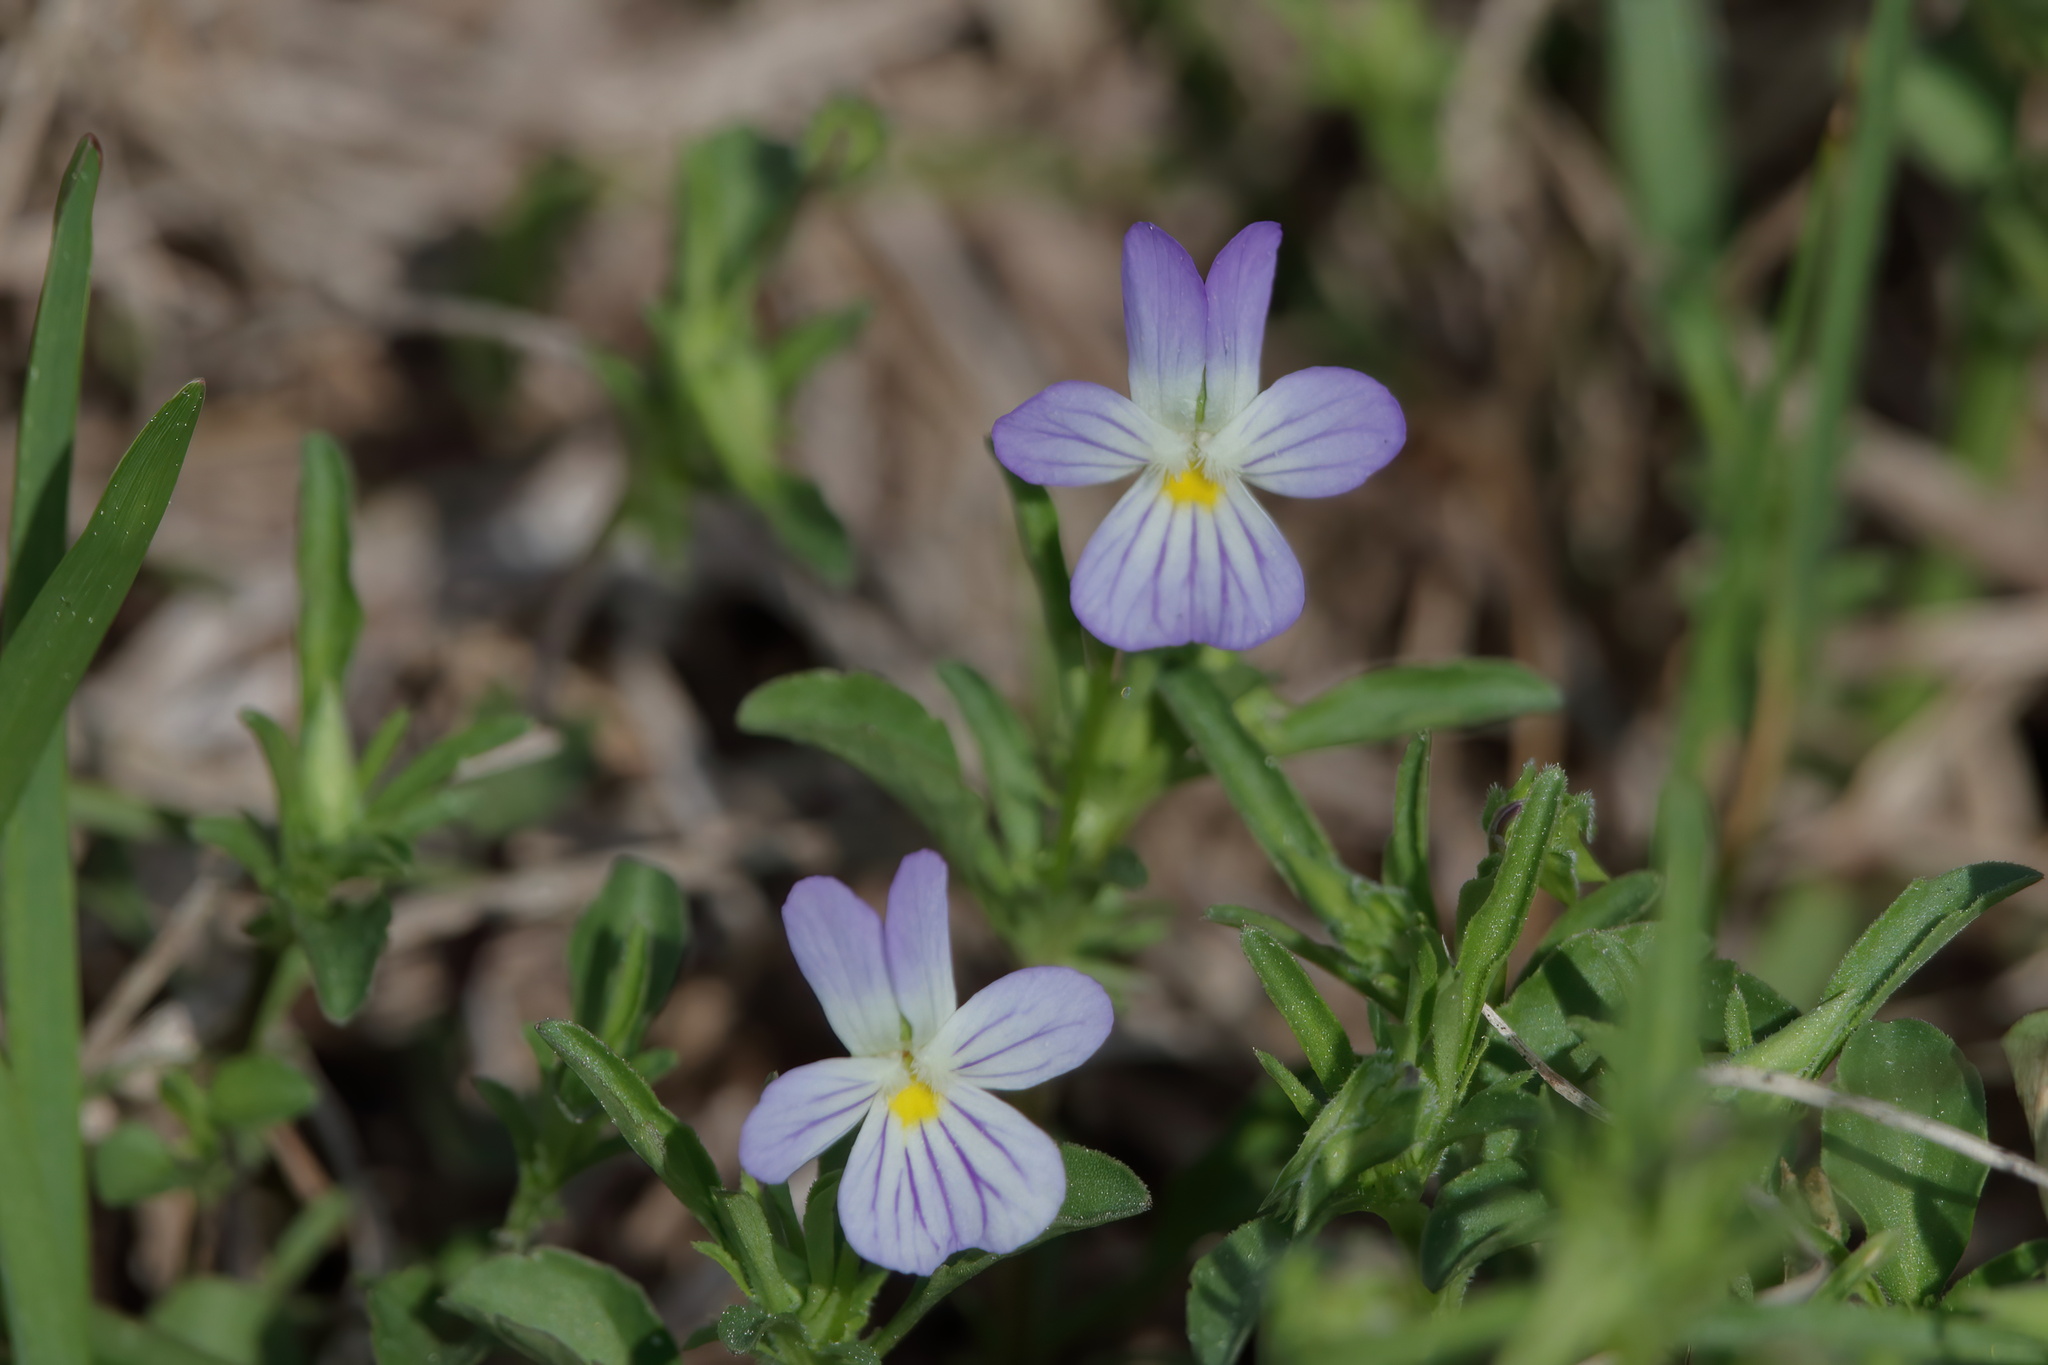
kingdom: Plantae
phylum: Tracheophyta
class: Magnoliopsida
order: Malpighiales
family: Violaceae
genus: Viola
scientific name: Viola rafinesquei
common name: American field pansy
